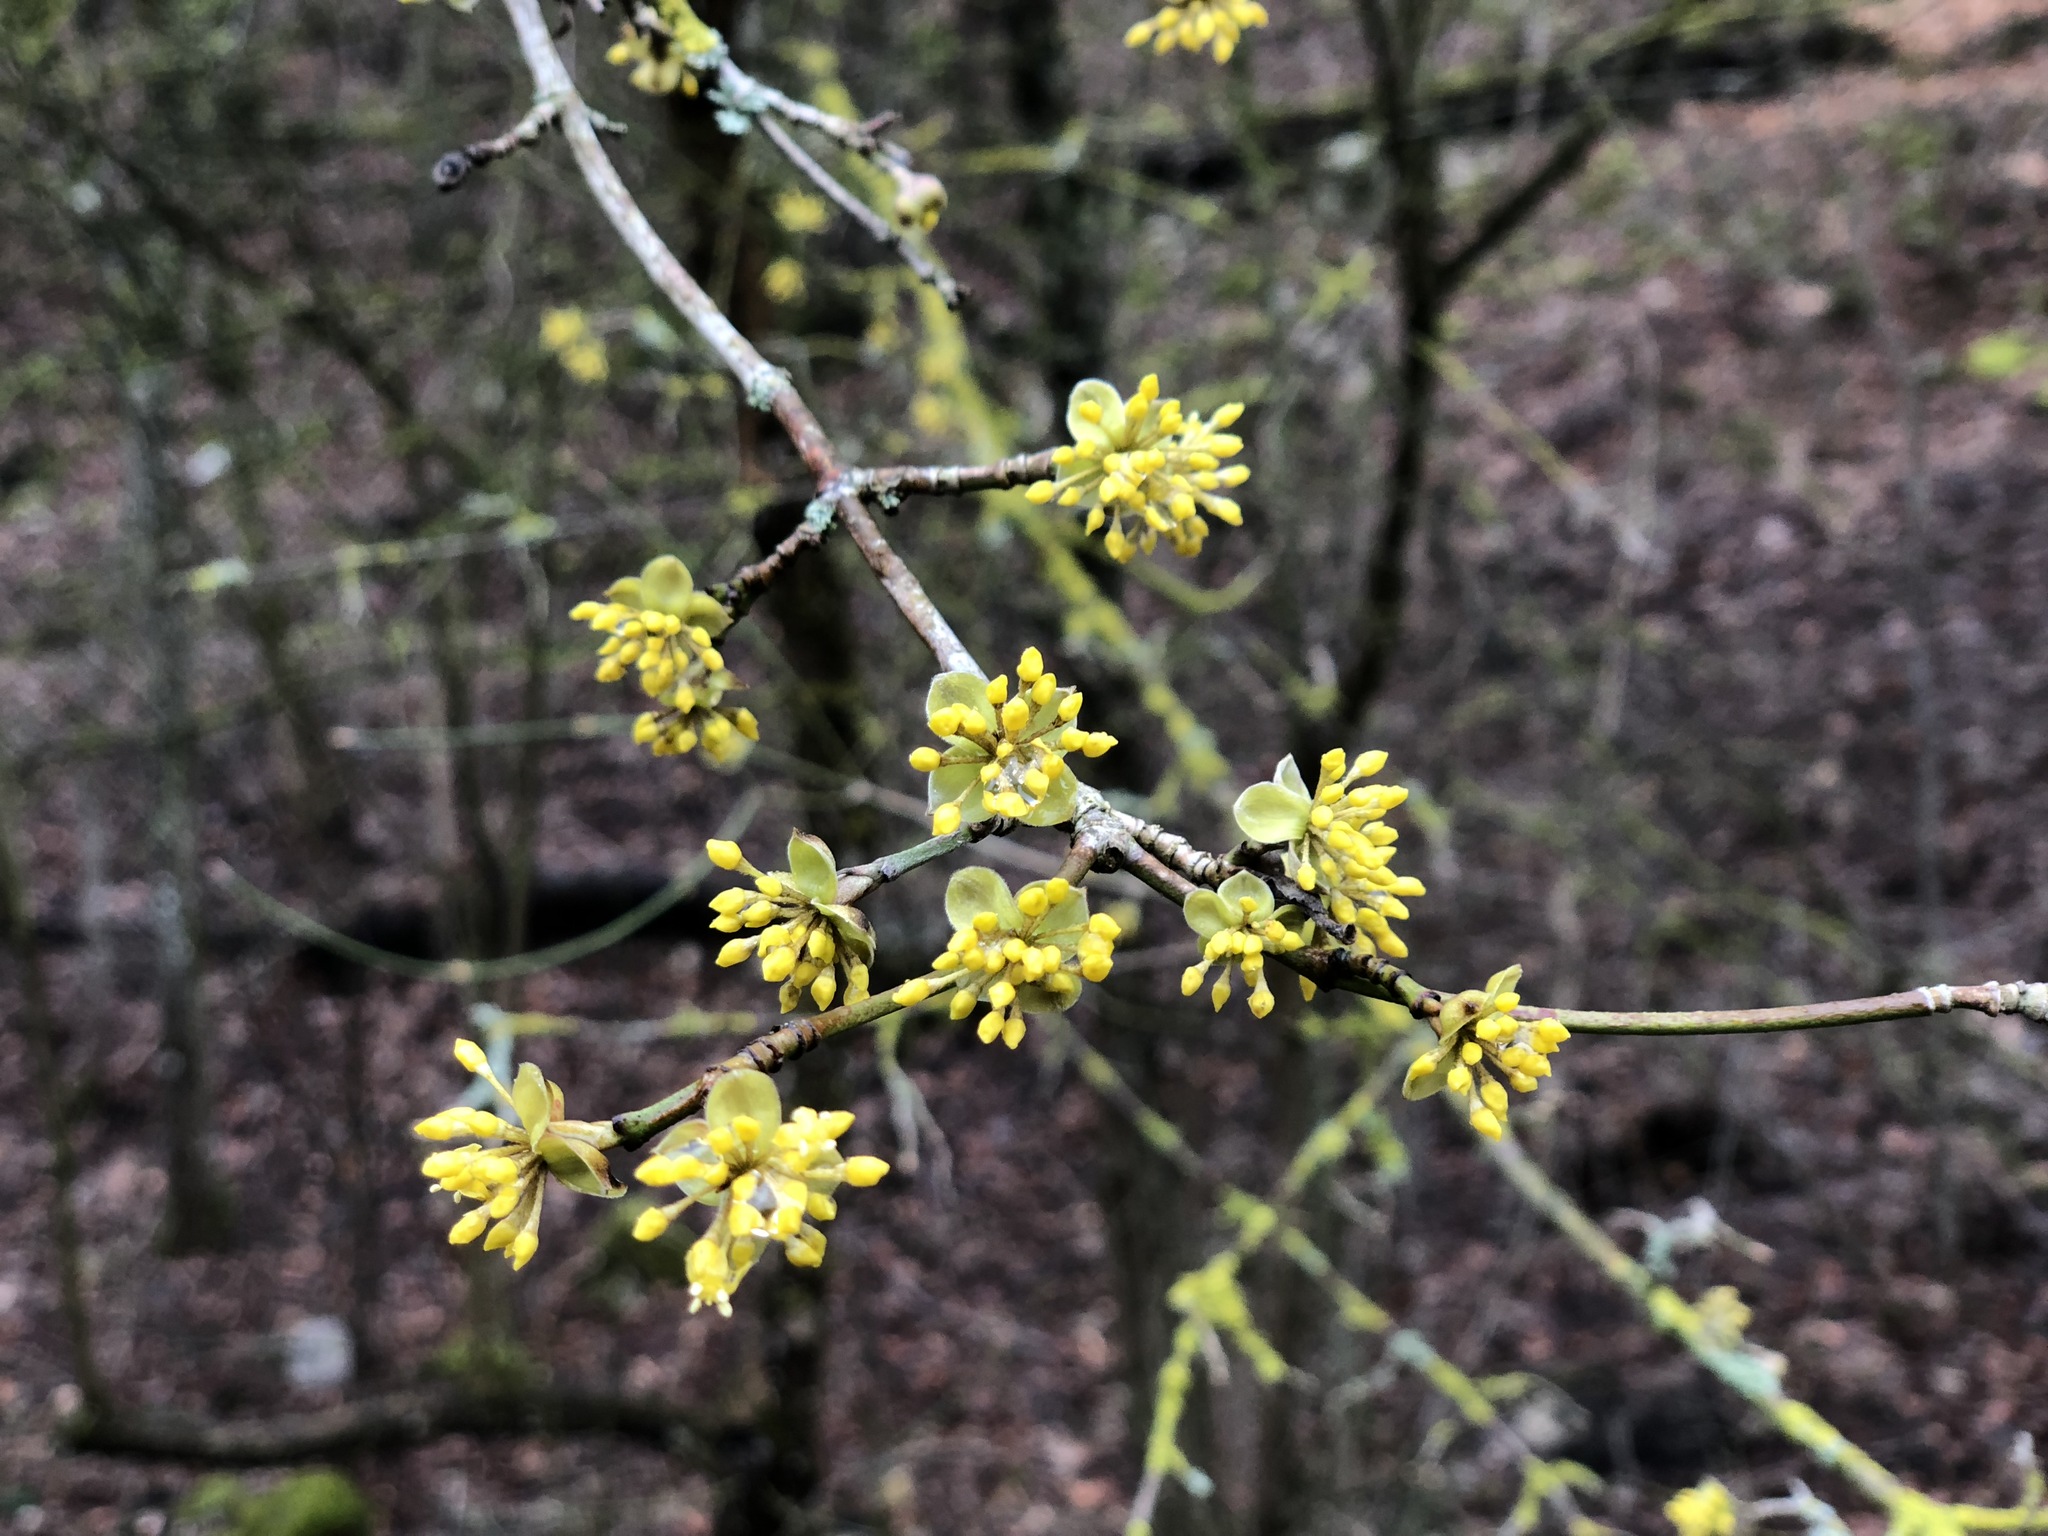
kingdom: Plantae
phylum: Tracheophyta
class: Magnoliopsida
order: Cornales
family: Cornaceae
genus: Cornus
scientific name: Cornus mas
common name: Cornelian-cherry
